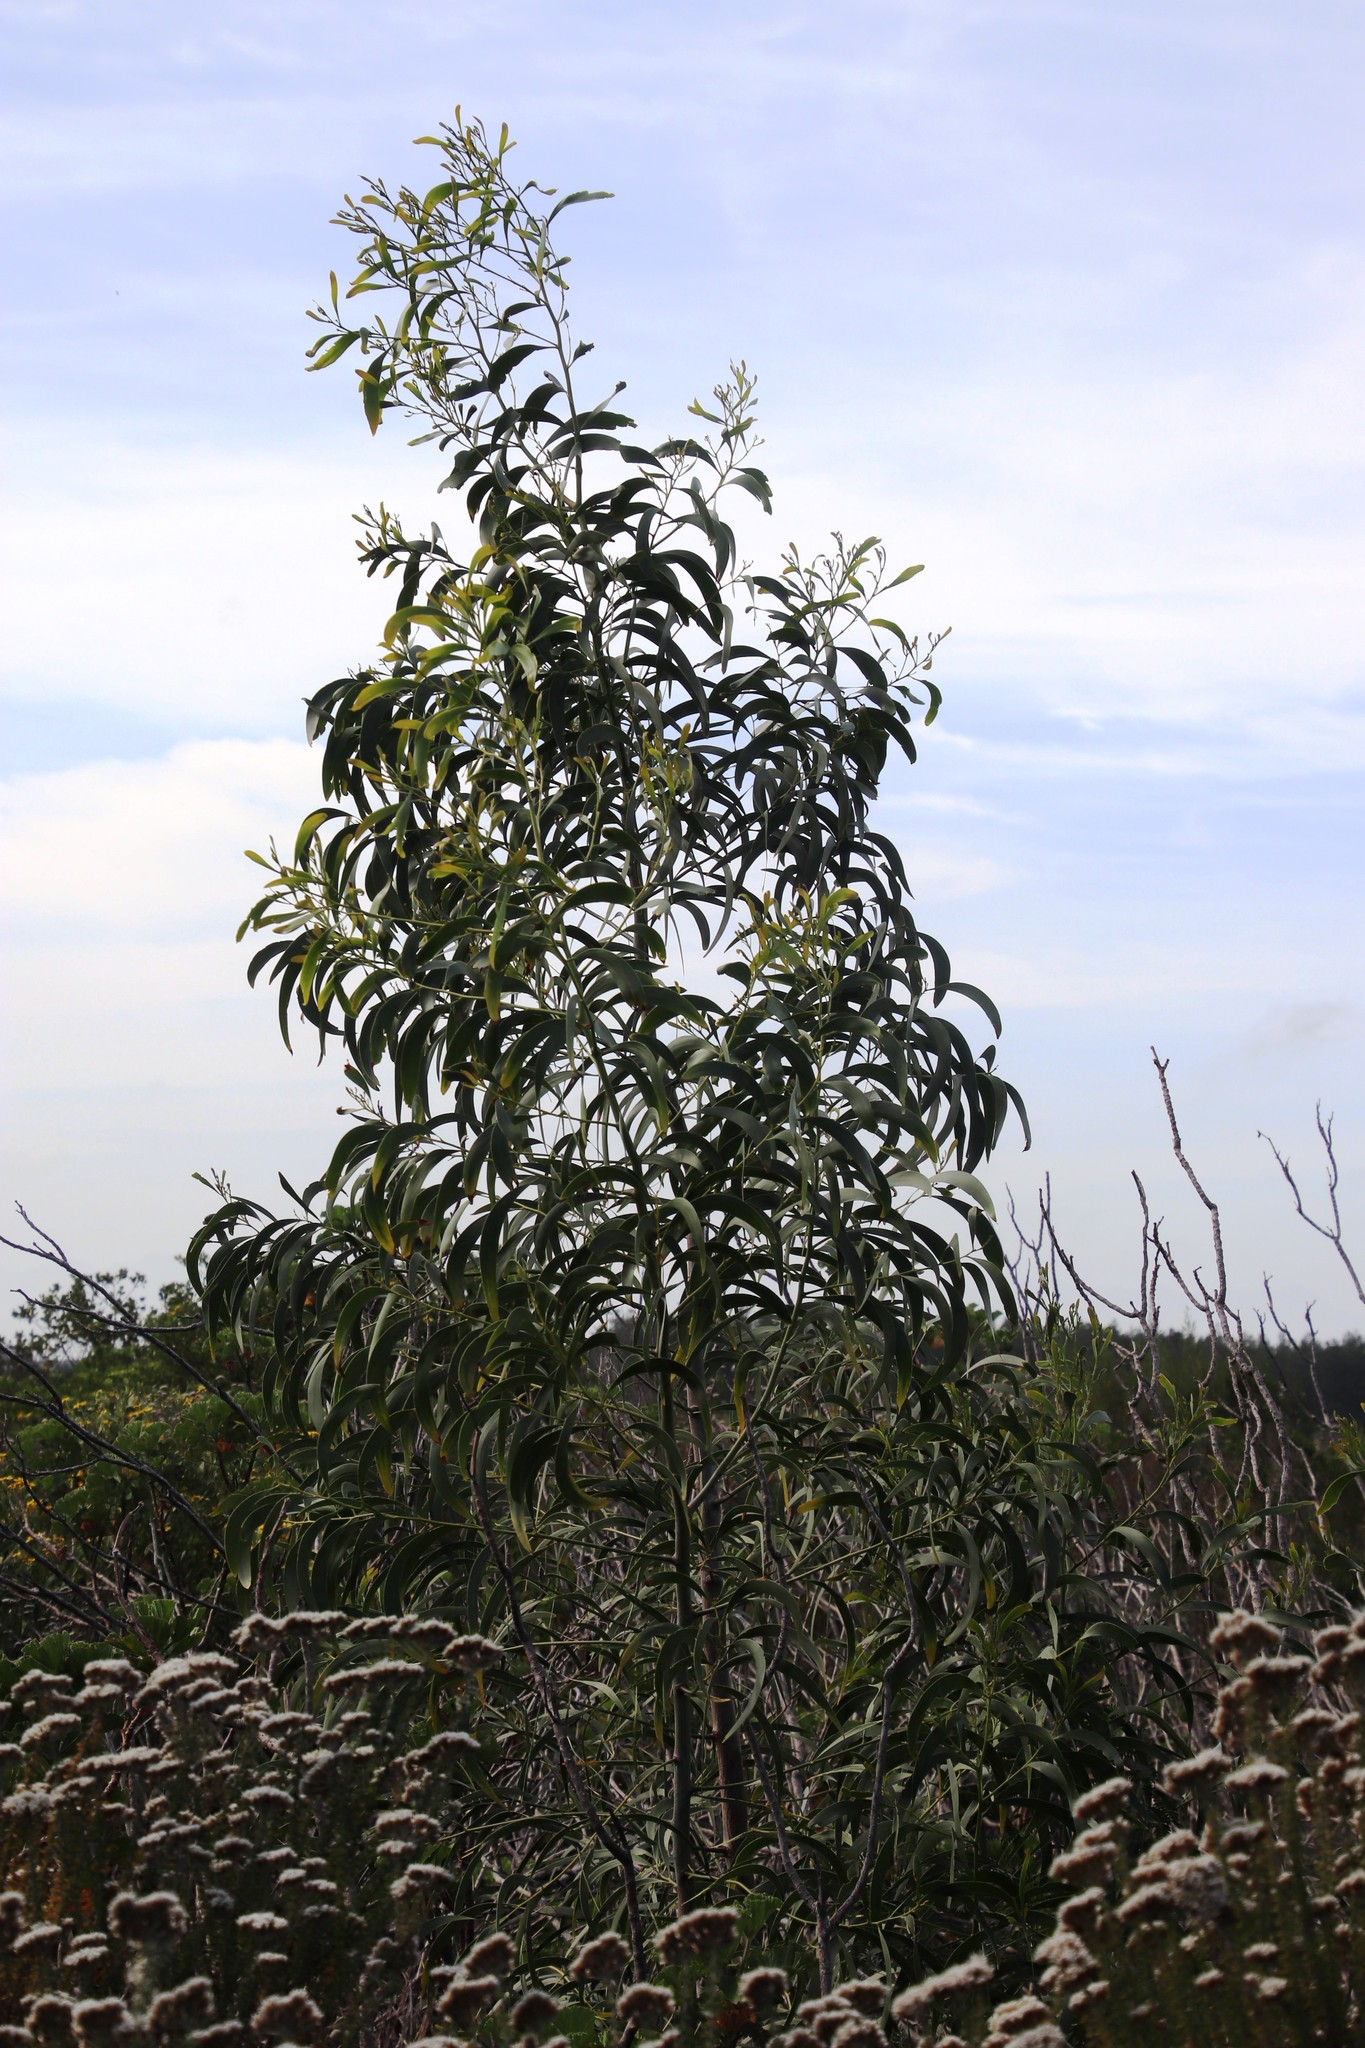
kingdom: Plantae
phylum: Tracheophyta
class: Magnoliopsida
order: Fabales
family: Fabaceae
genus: Acacia
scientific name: Acacia implexa
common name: Black wattle
